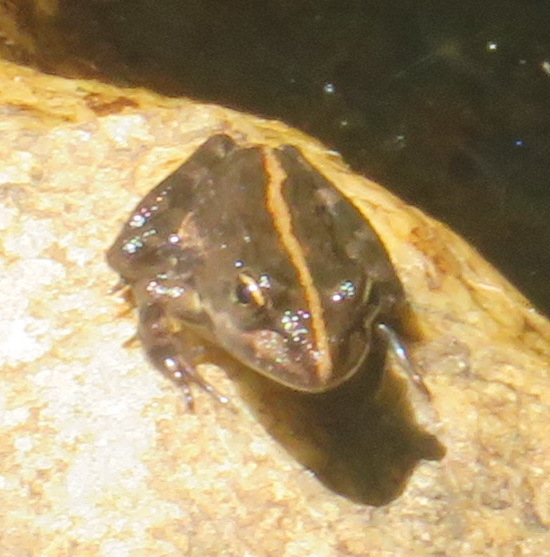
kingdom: Animalia
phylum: Chordata
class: Amphibia
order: Anura
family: Pyxicephalidae
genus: Amietia
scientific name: Amietia fuscigula
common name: Cape rana
